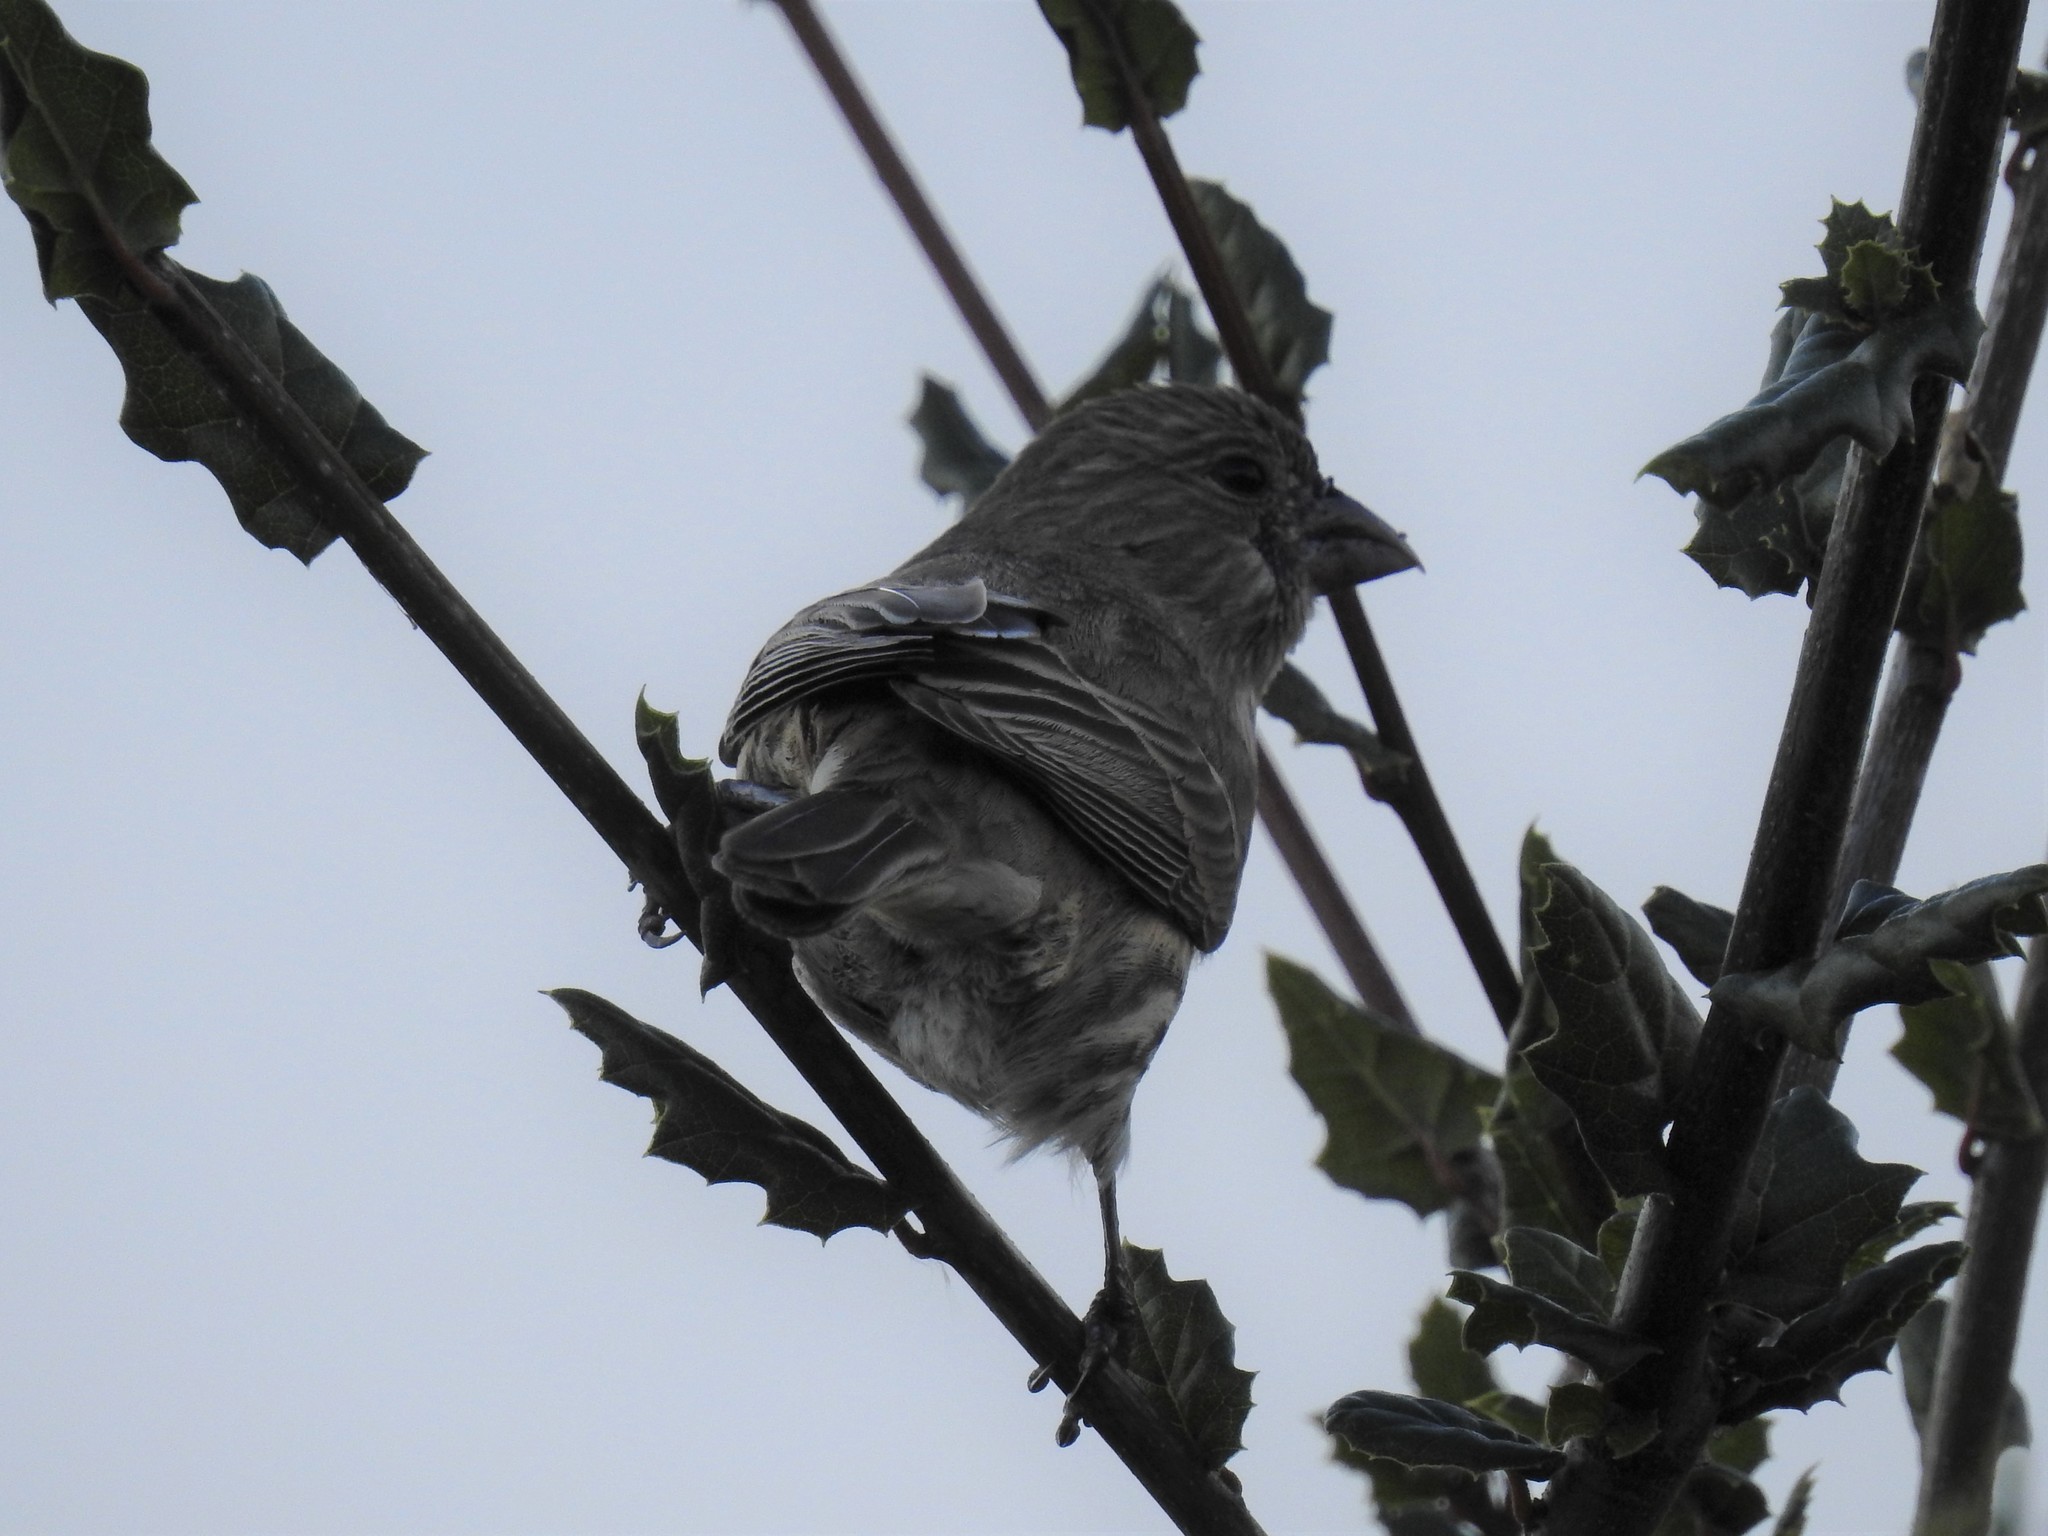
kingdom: Animalia
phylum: Chordata
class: Aves
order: Passeriformes
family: Fringillidae
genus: Haemorhous
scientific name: Haemorhous mexicanus
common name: House finch
